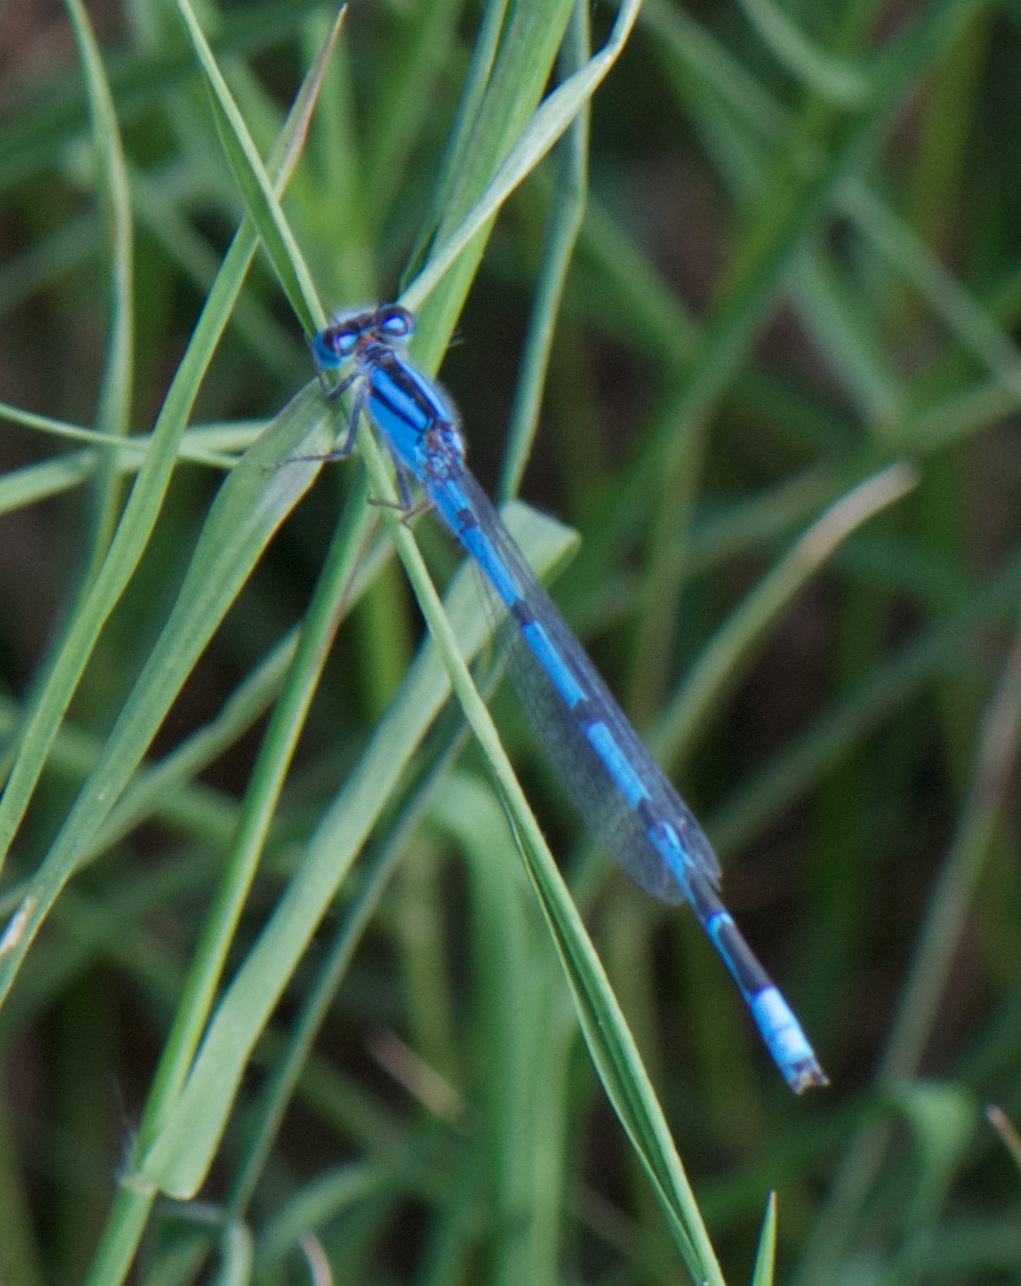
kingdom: Animalia
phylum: Arthropoda
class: Insecta
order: Odonata
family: Coenagrionidae
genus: Enallagma
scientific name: Enallagma civile
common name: Damselfly
